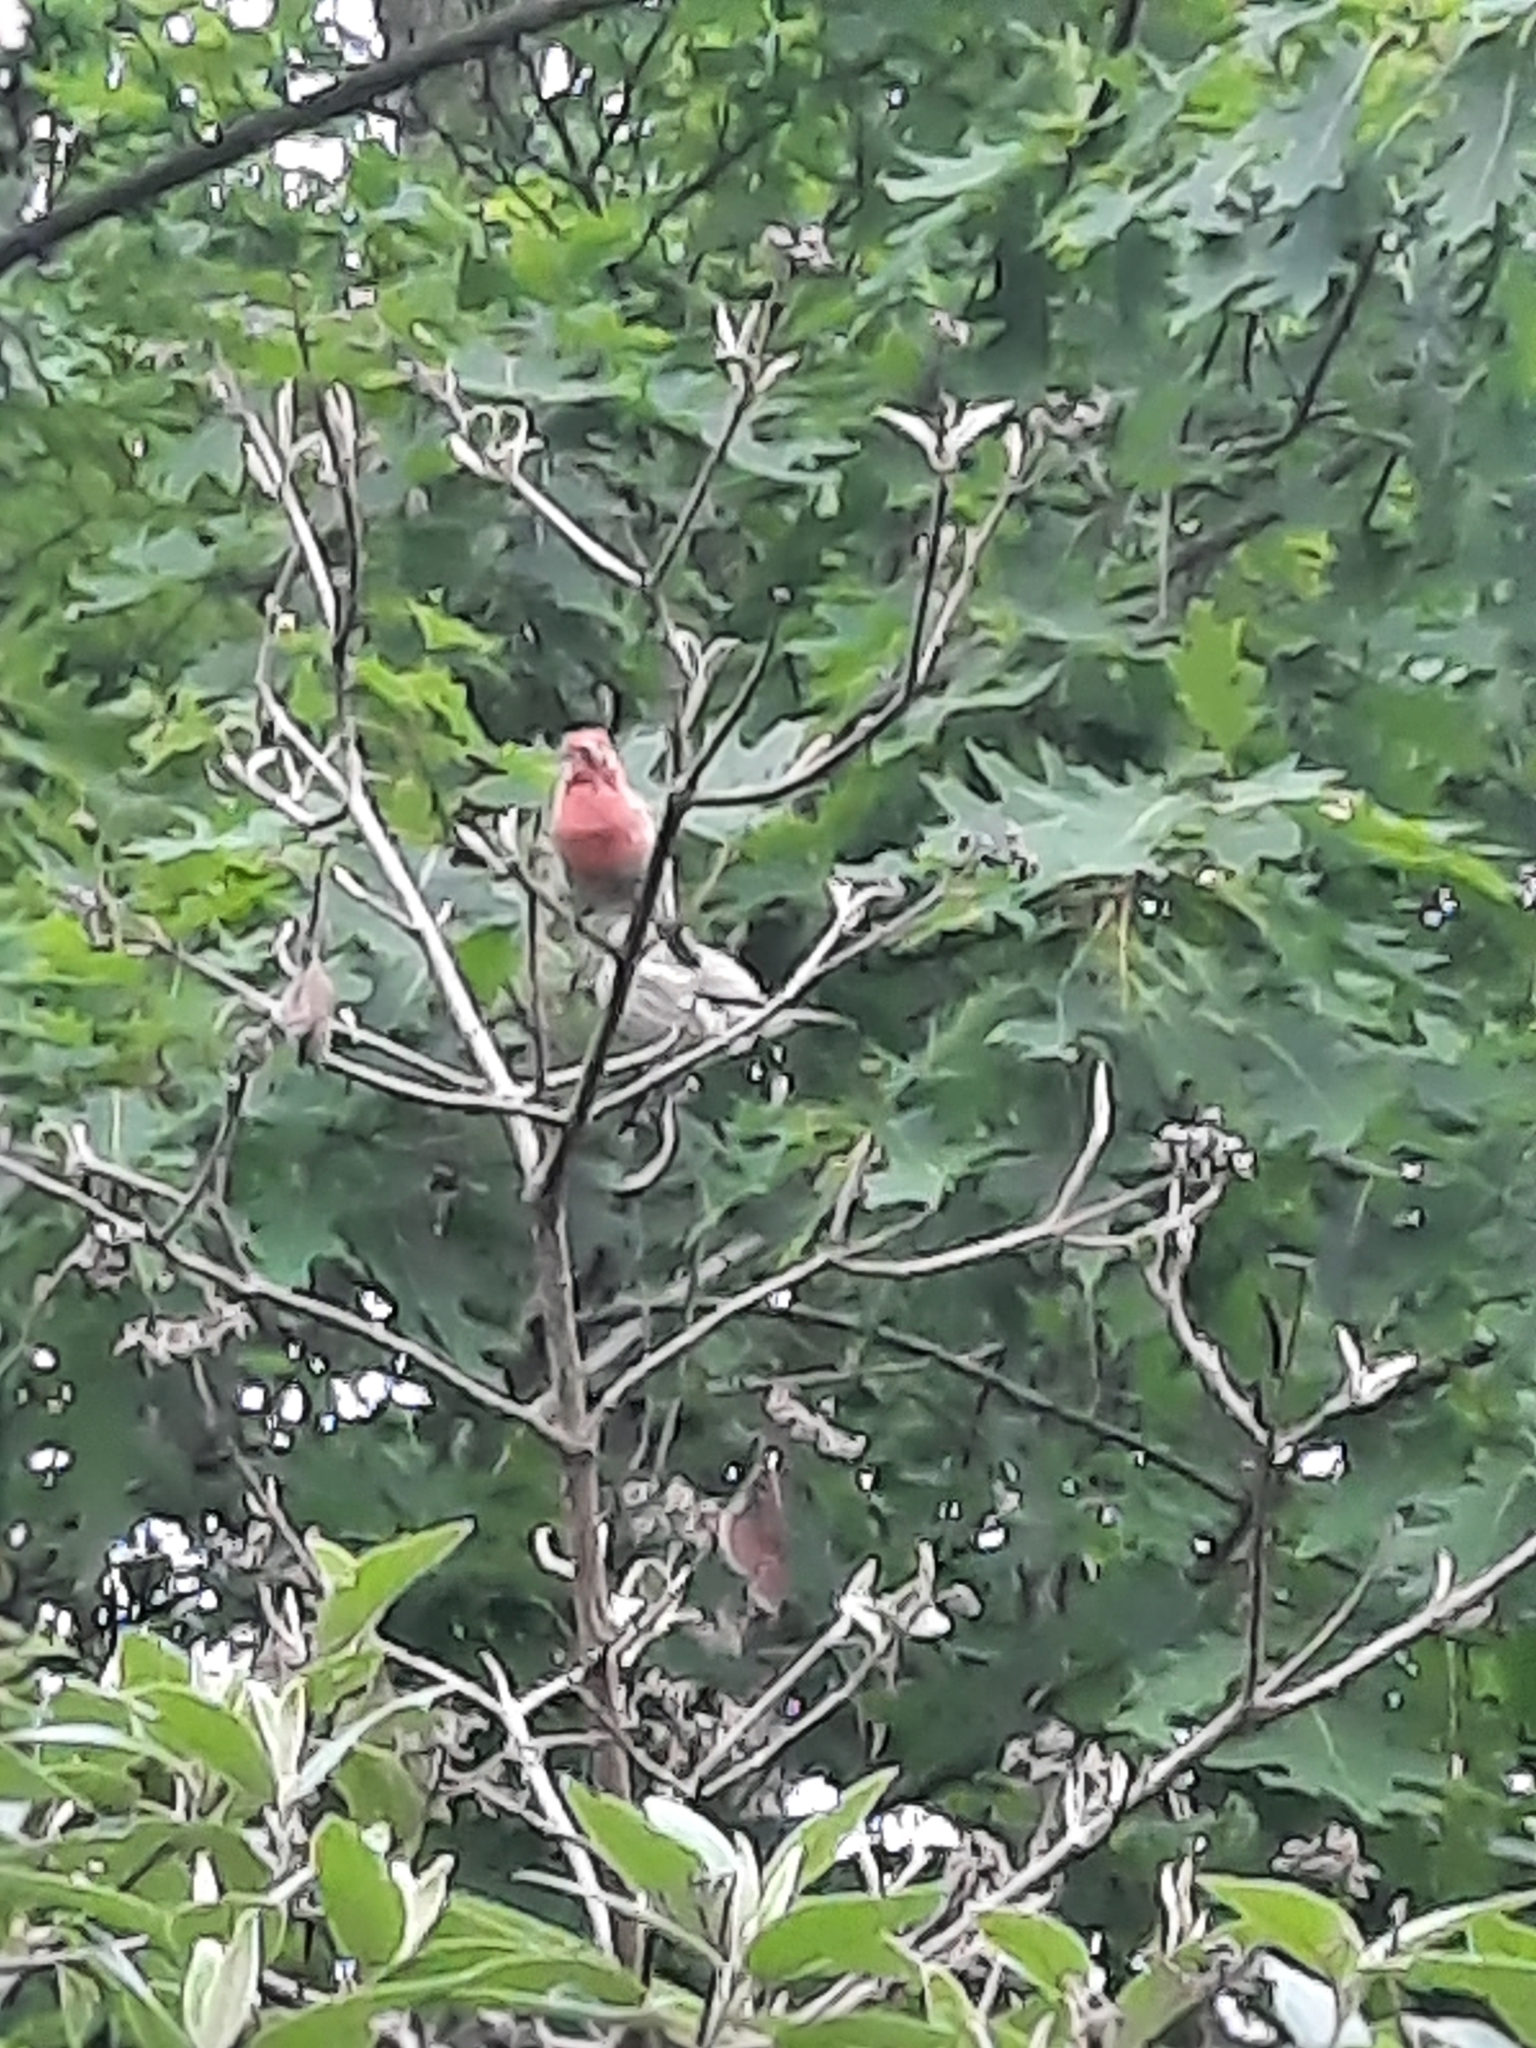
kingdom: Animalia
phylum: Chordata
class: Aves
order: Passeriformes
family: Fringillidae
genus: Haemorhous
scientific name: Haemorhous mexicanus
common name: House finch
